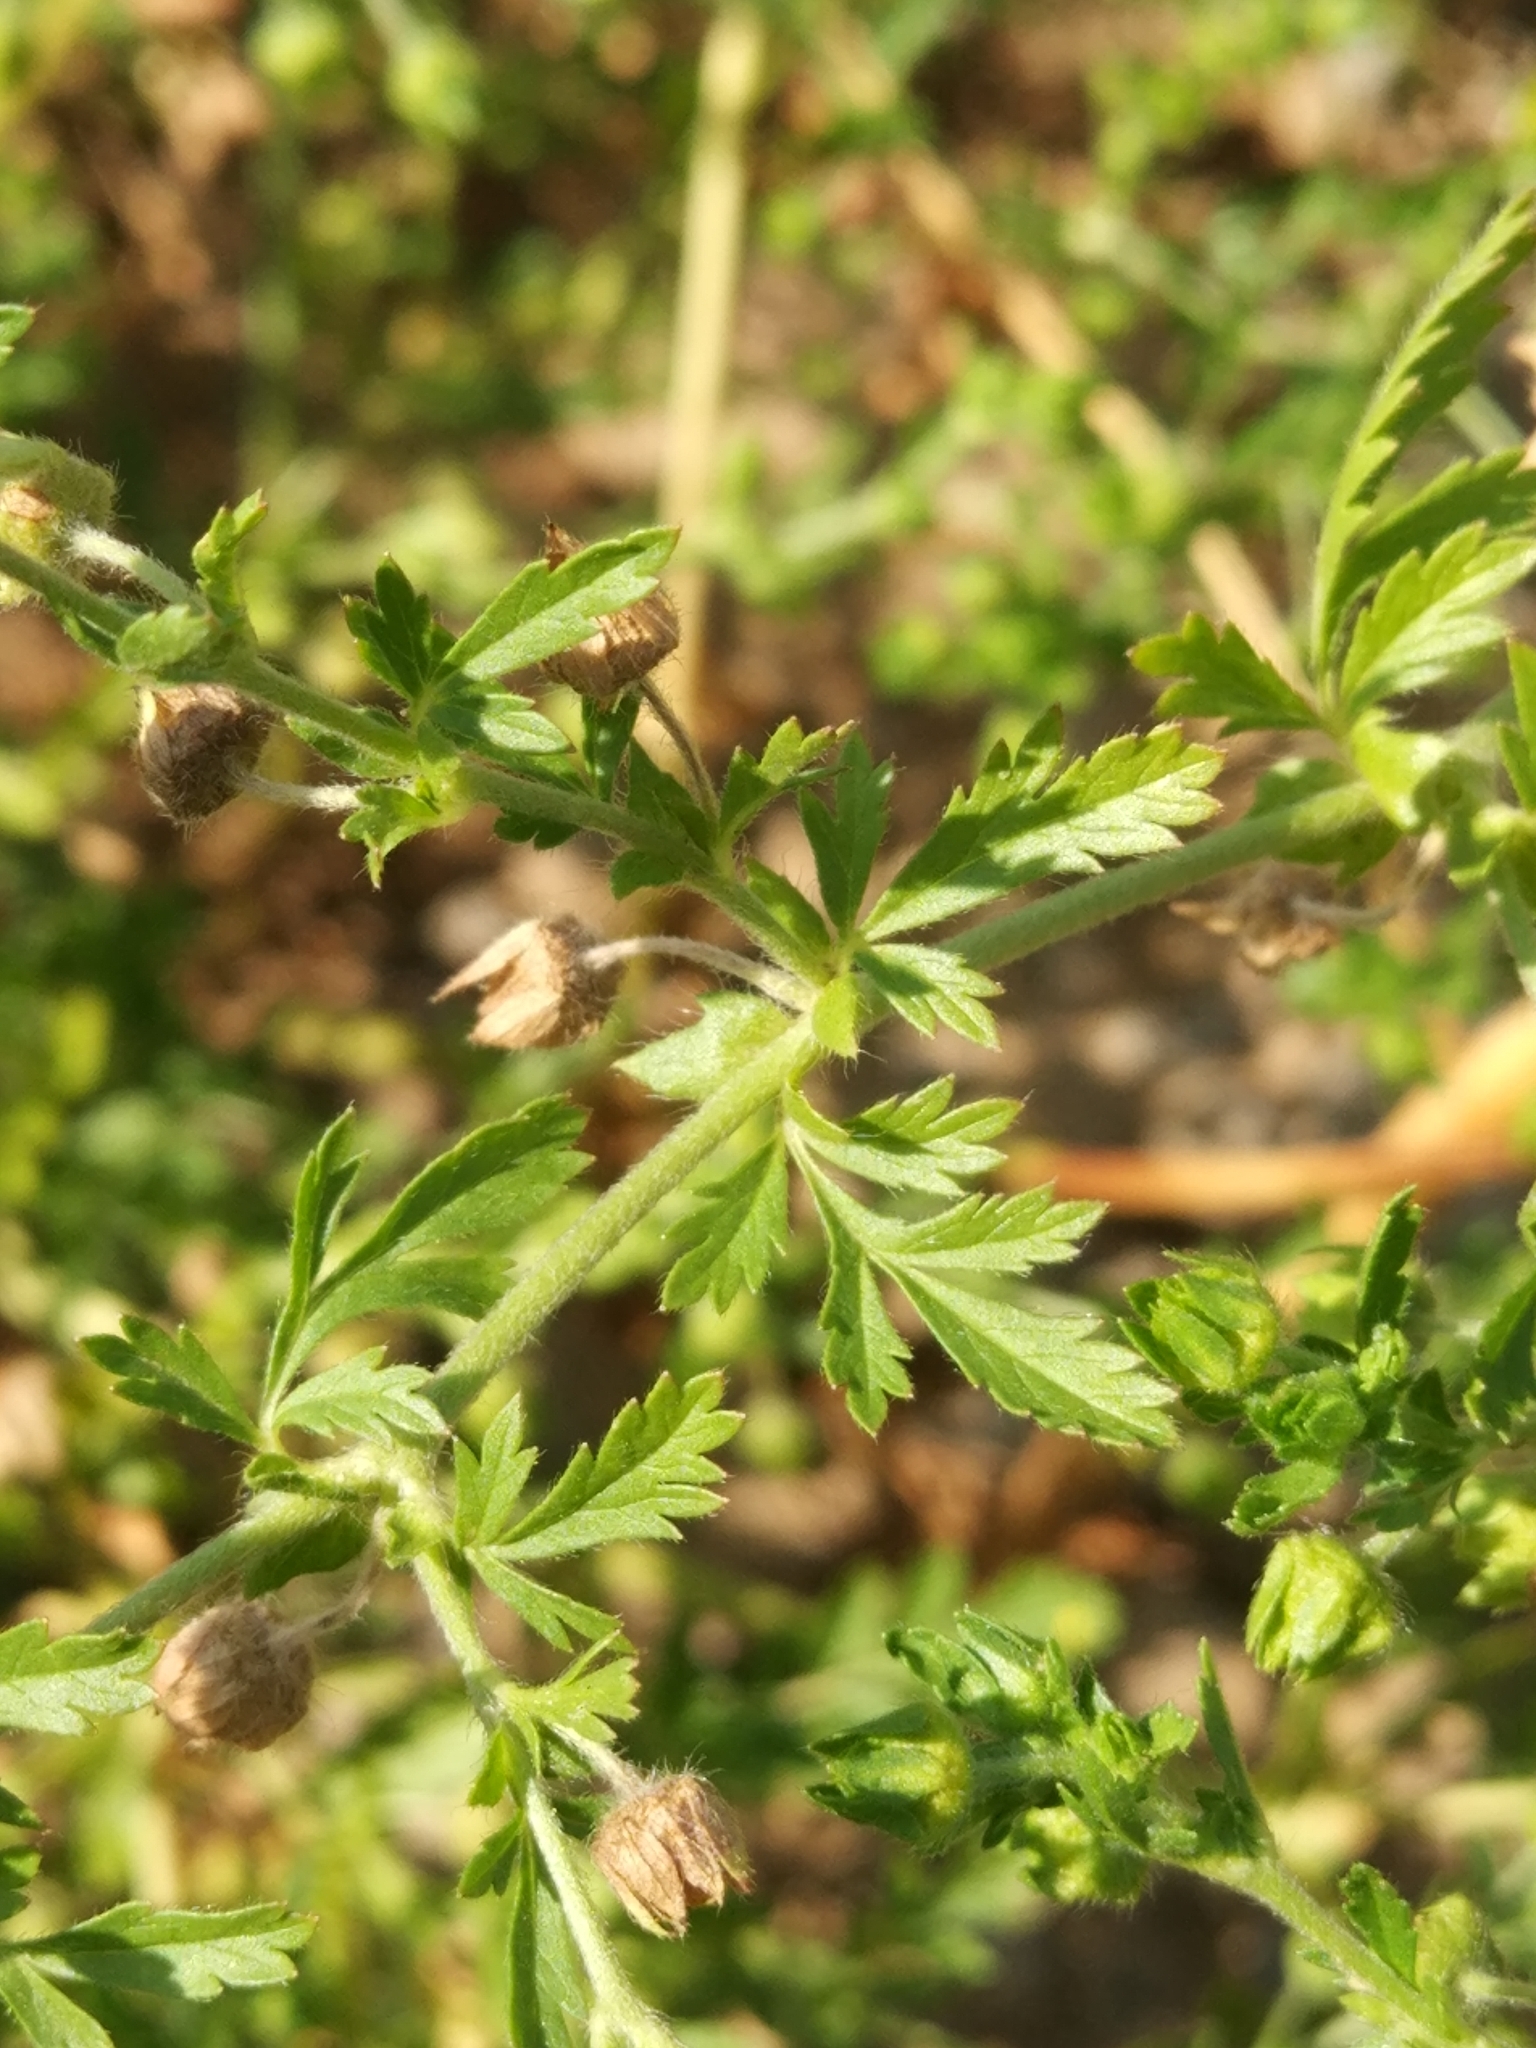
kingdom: Plantae
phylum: Tracheophyta
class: Magnoliopsida
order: Rosales
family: Rosaceae
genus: Potentilla
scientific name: Potentilla supina
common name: Prostrate cinquefoil
